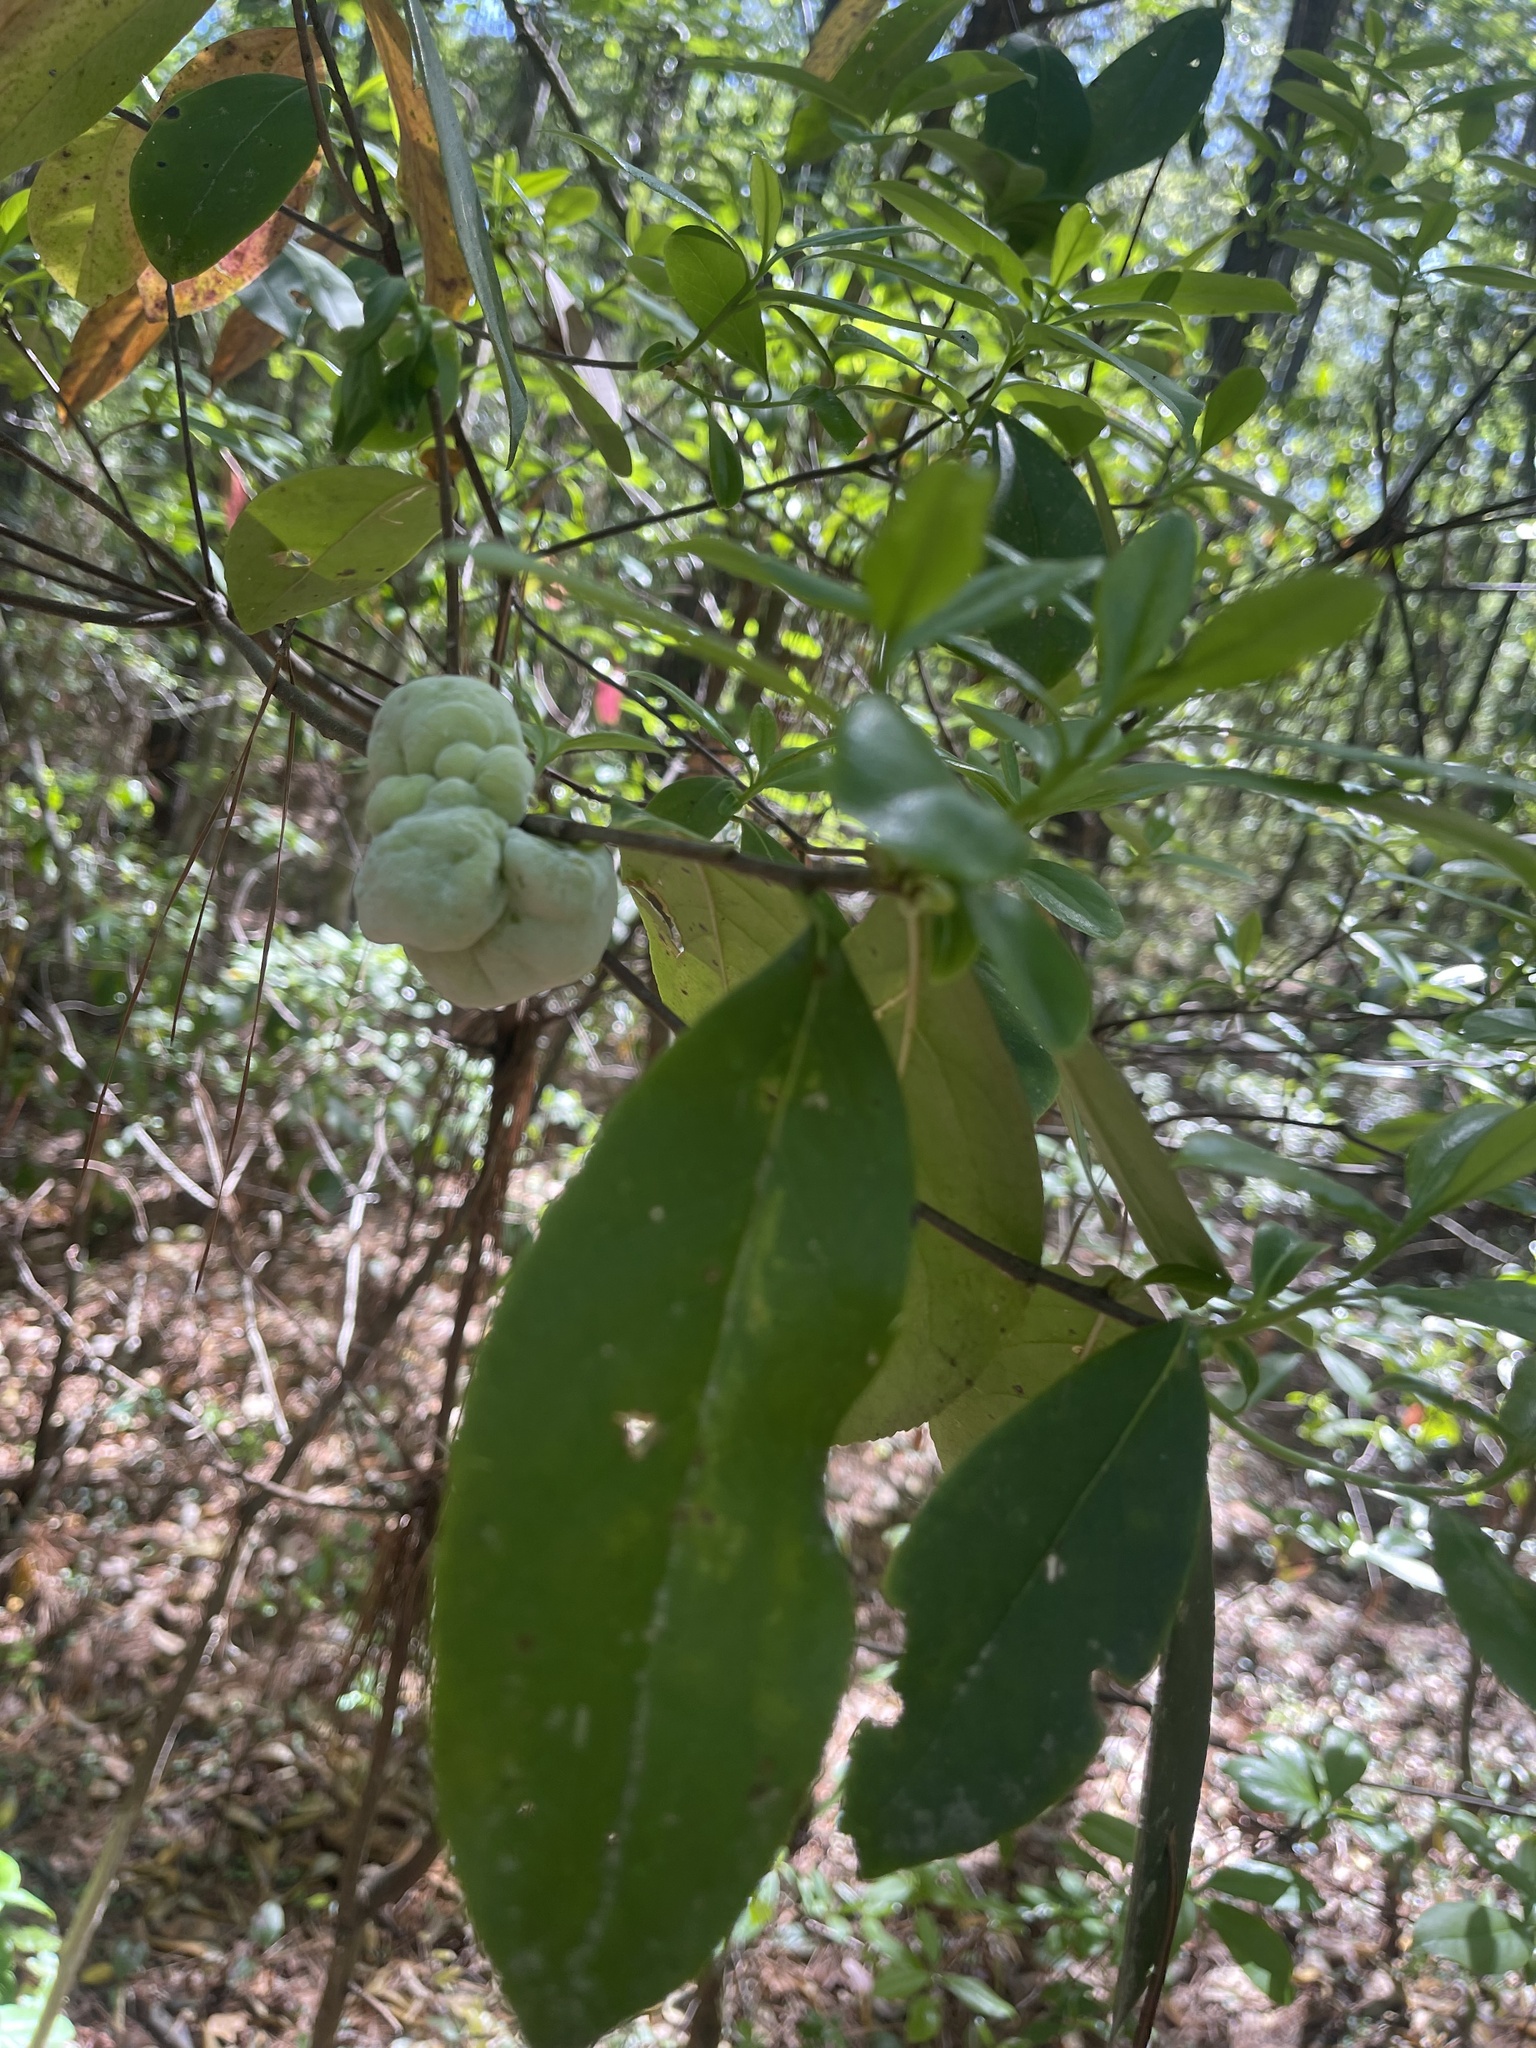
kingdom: Fungi
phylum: Basidiomycota
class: Exobasidiomycetes
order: Exobasidiales
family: Exobasidiaceae
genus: Exobasidium
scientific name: Exobasidium symploci
